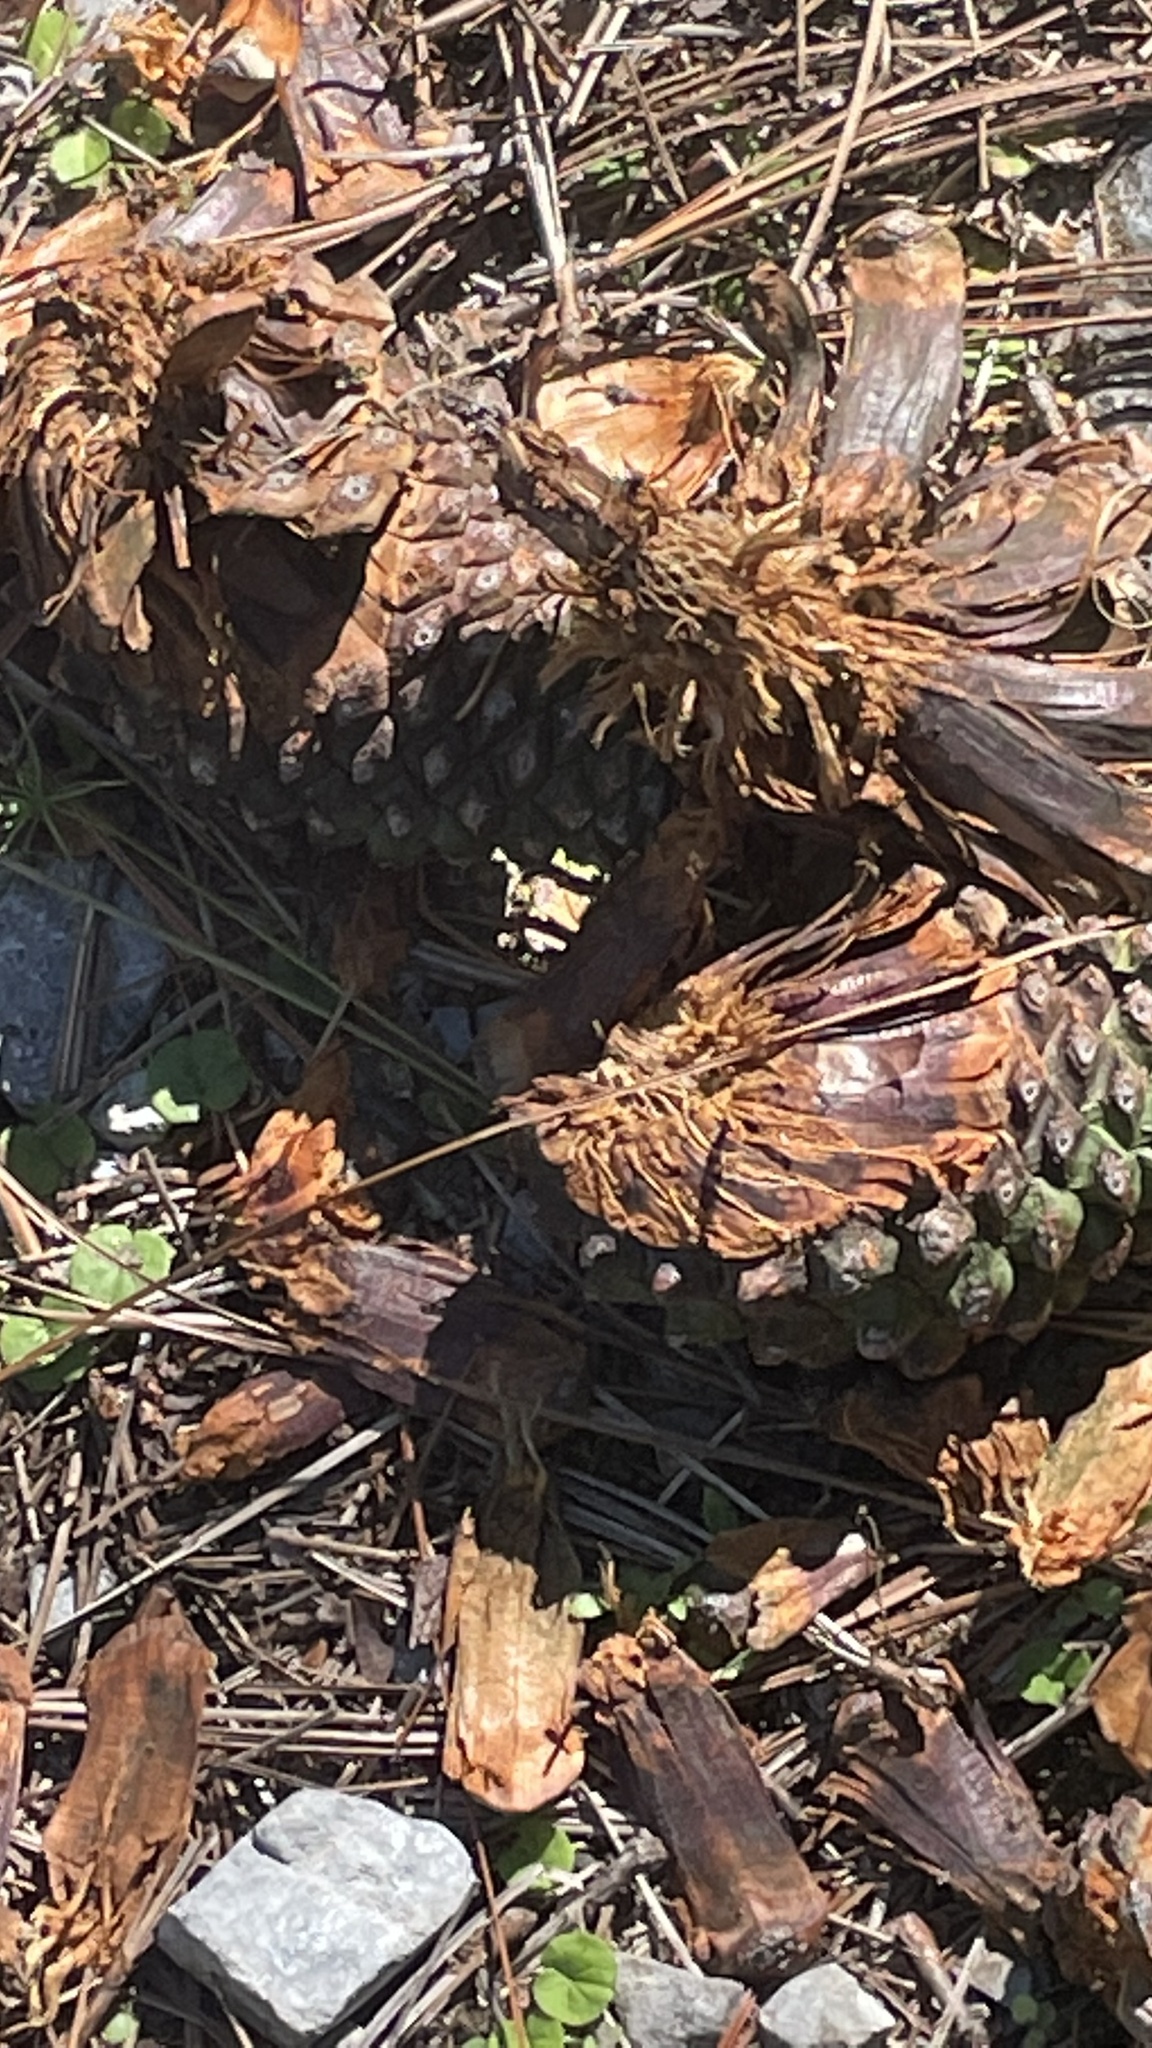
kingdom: Plantae
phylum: Tracheophyta
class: Pinopsida
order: Pinales
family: Pinaceae
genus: Pinus
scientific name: Pinus pseudostrobus
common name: False weymouth pine
